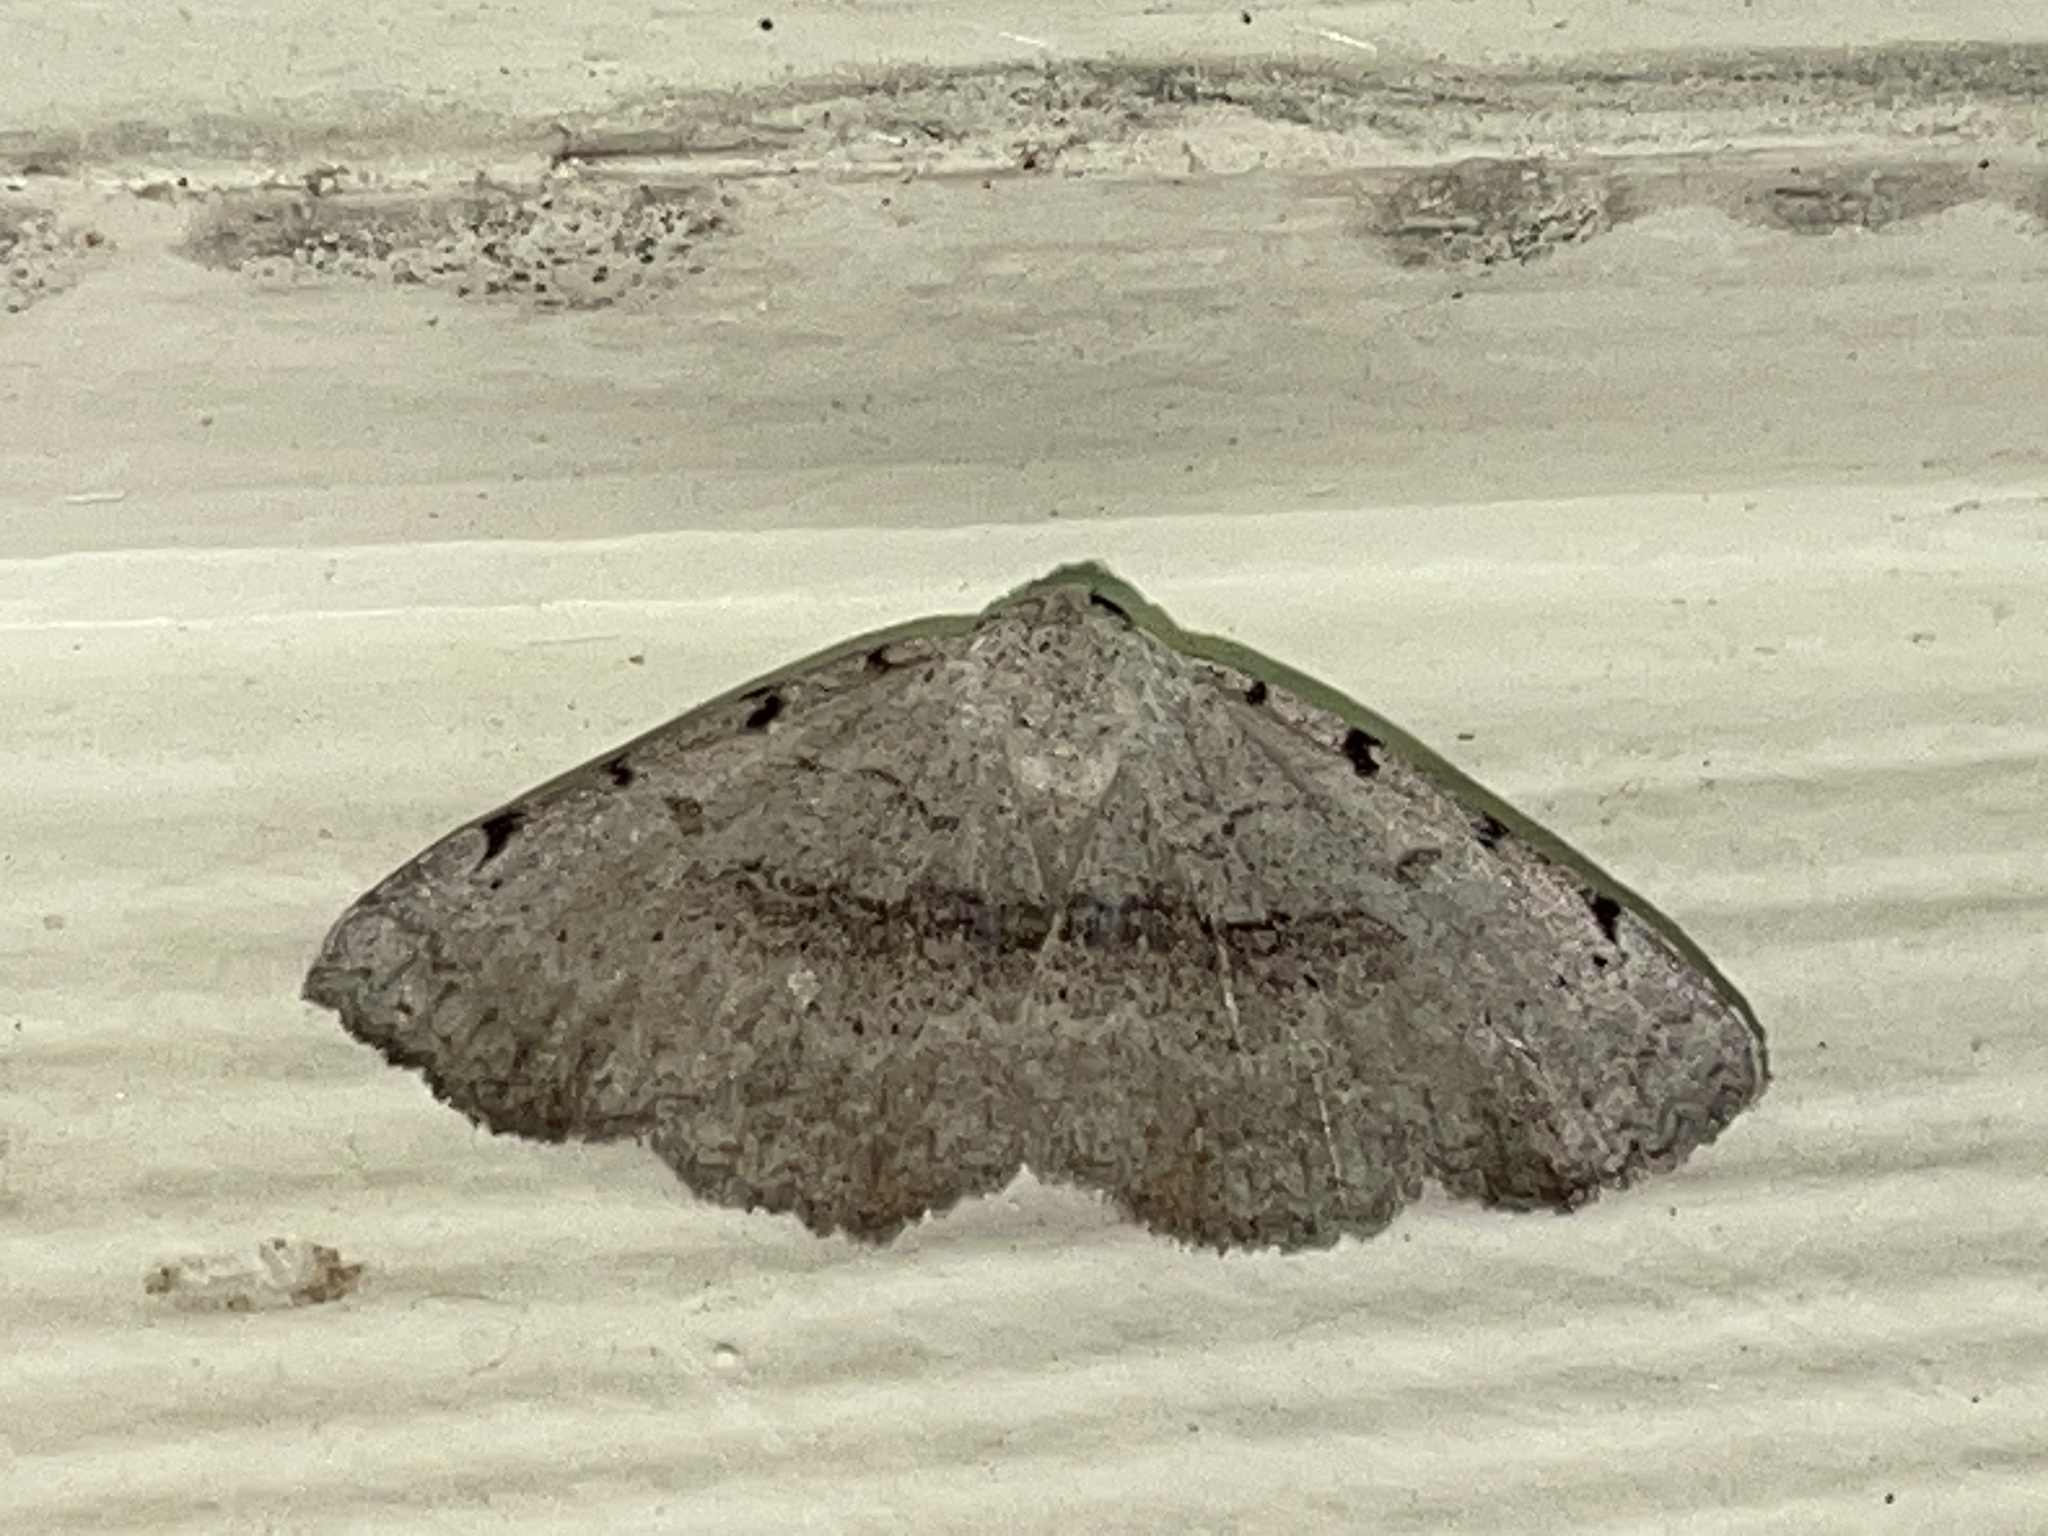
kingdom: Animalia
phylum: Arthropoda
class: Insecta
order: Lepidoptera
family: Erebidae
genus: Spiloloma
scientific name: Spiloloma lunilinea
